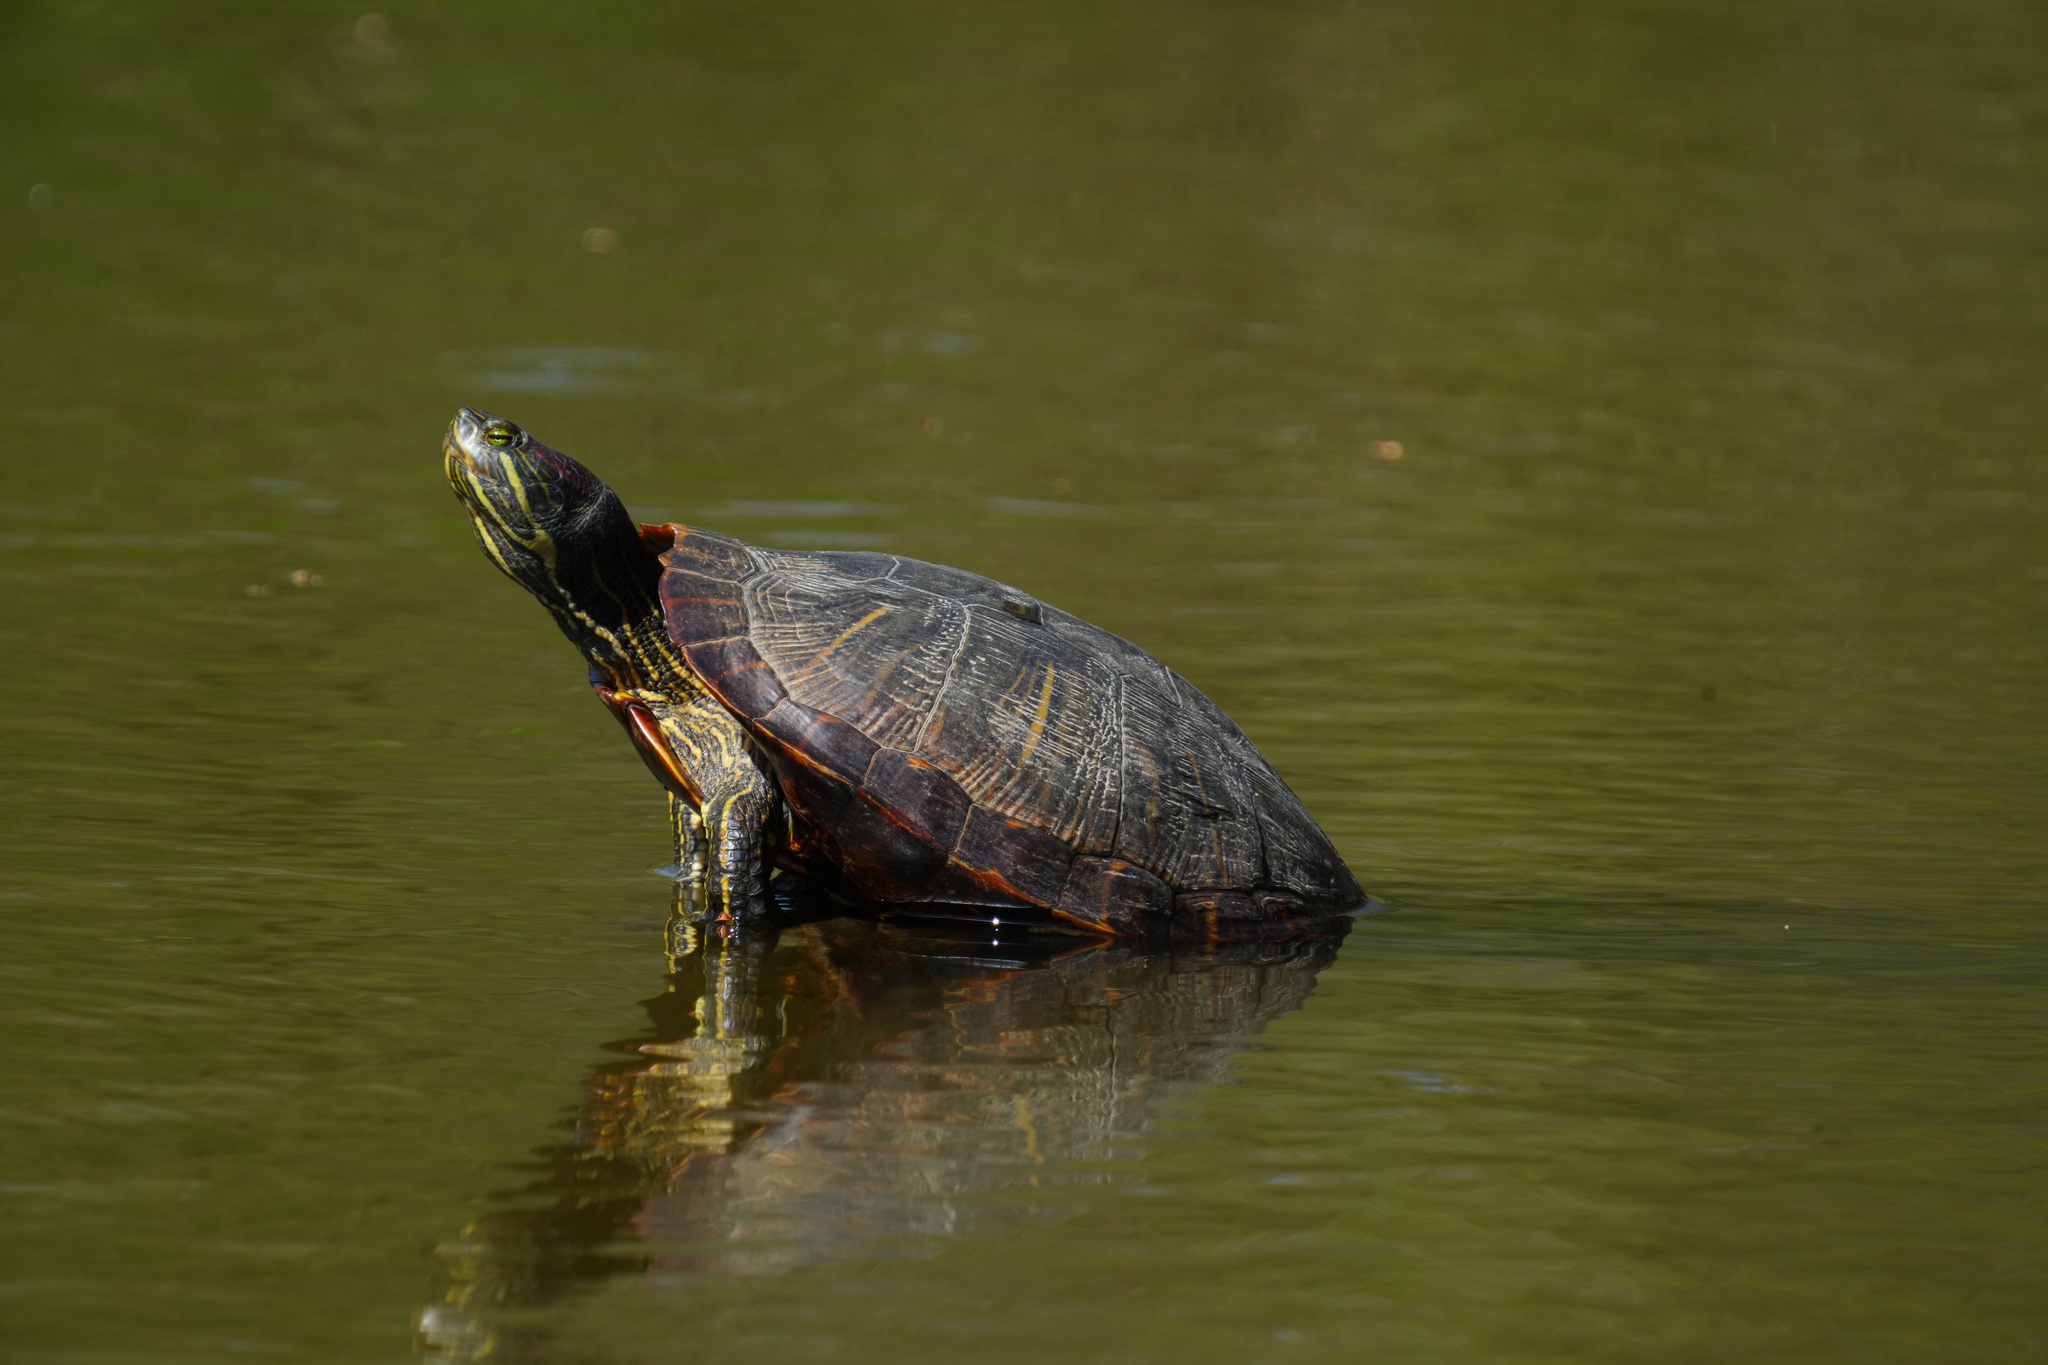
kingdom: Animalia
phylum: Chordata
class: Testudines
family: Emydidae
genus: Trachemys
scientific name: Trachemys scripta
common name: Slider
